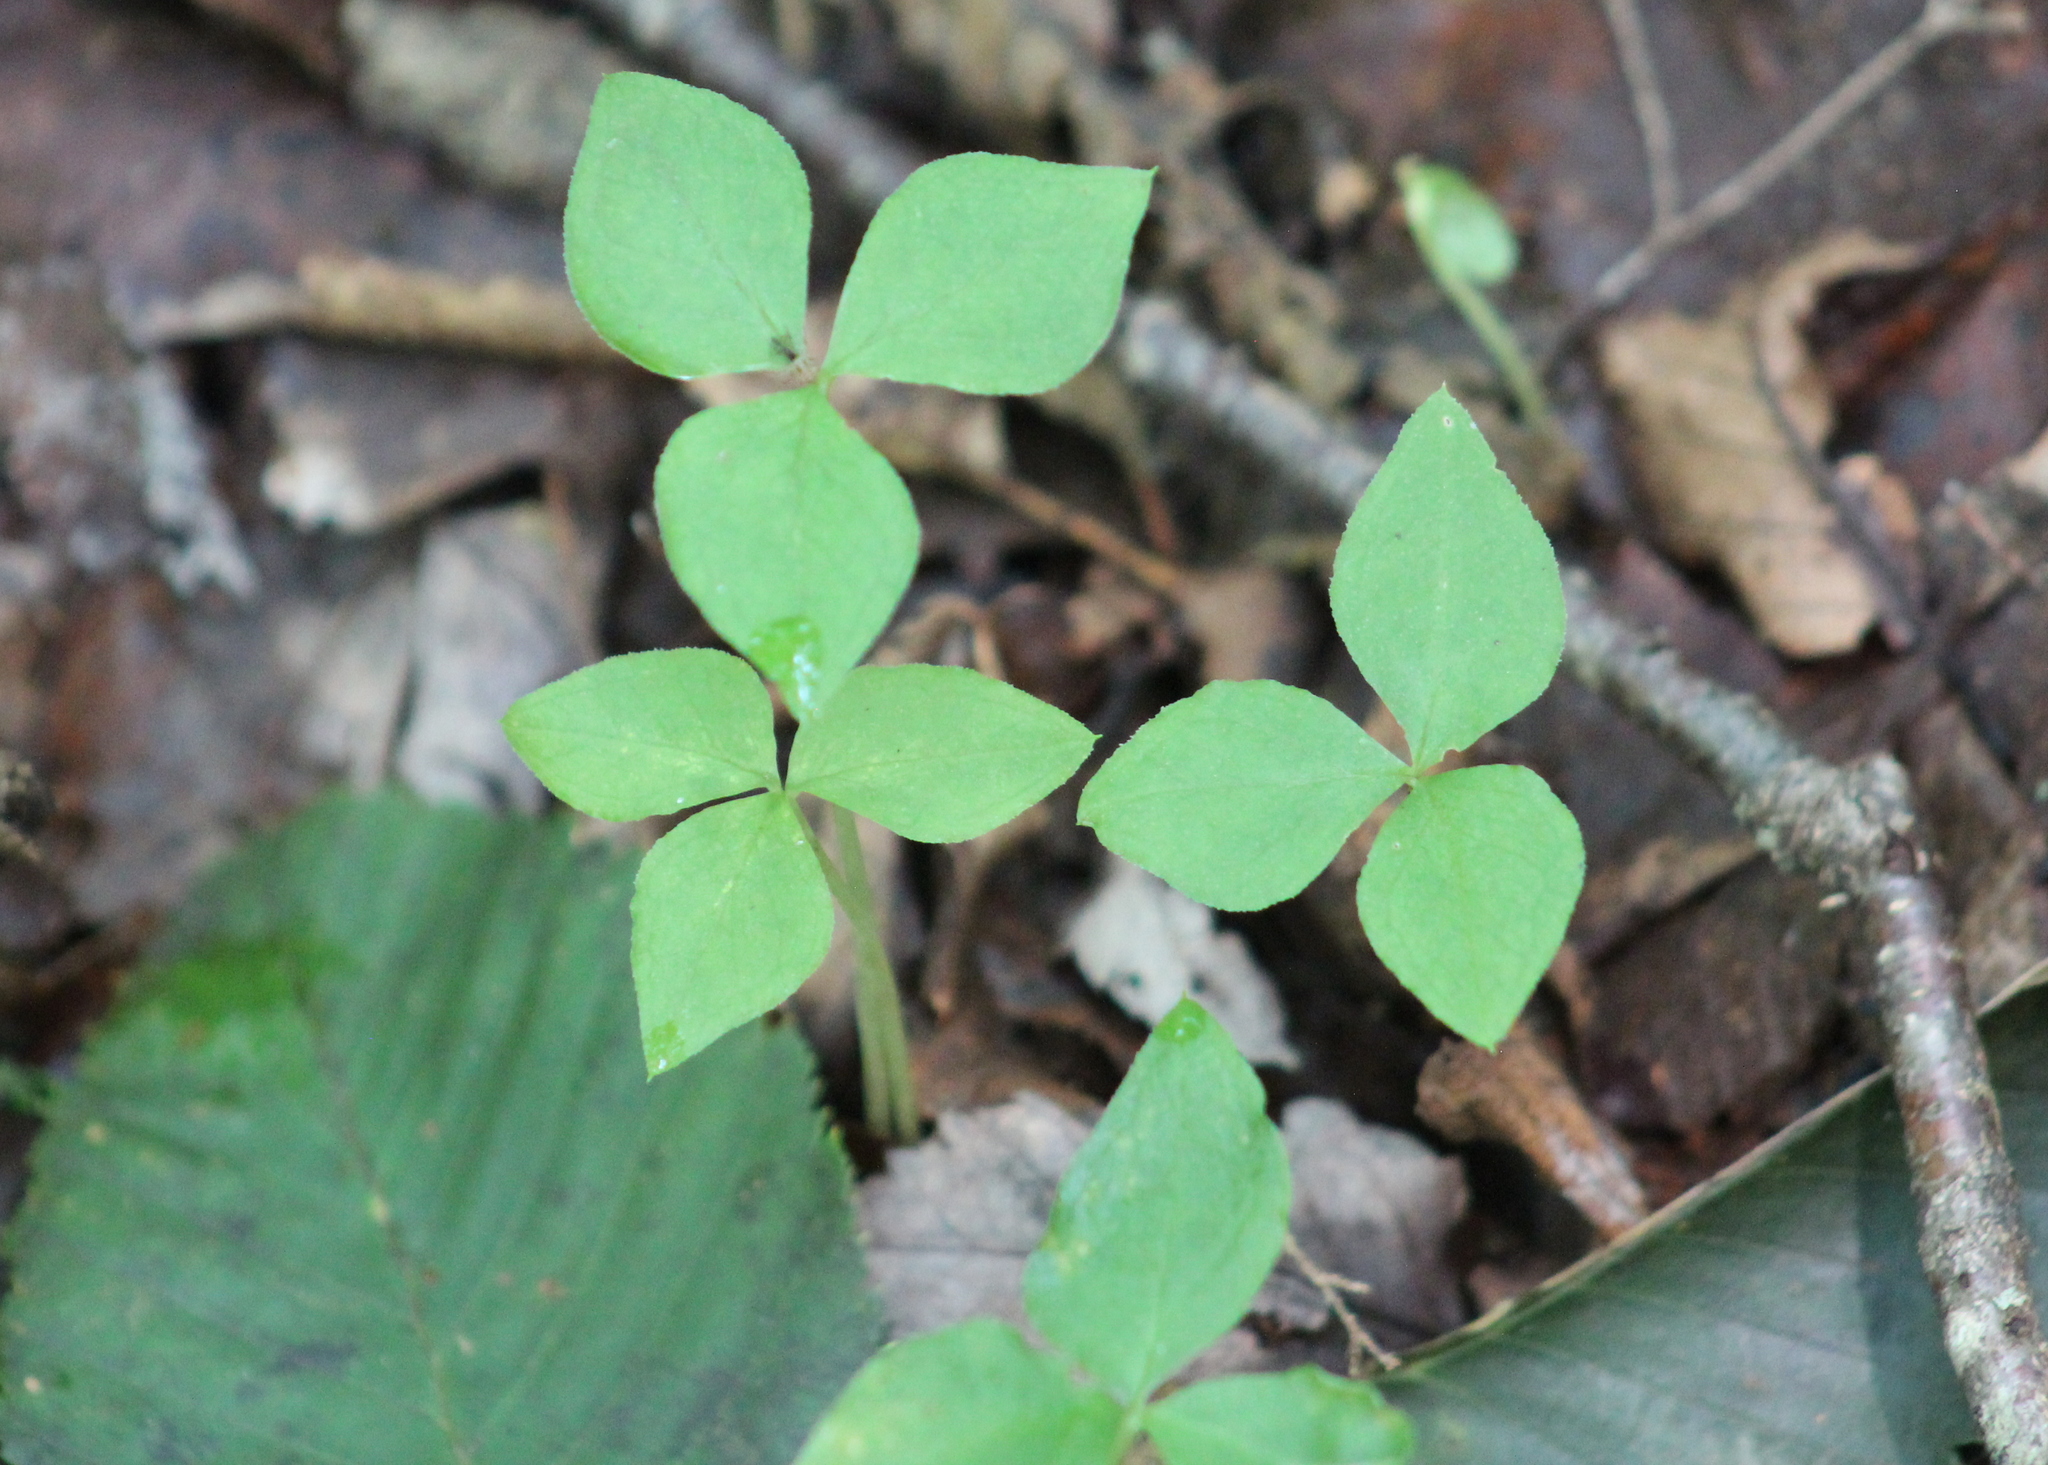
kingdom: Plantae
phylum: Tracheophyta
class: Liliopsida
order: Alismatales
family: Araceae
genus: Arisaema
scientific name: Arisaema triphyllum
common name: Jack-in-the-pulpit
